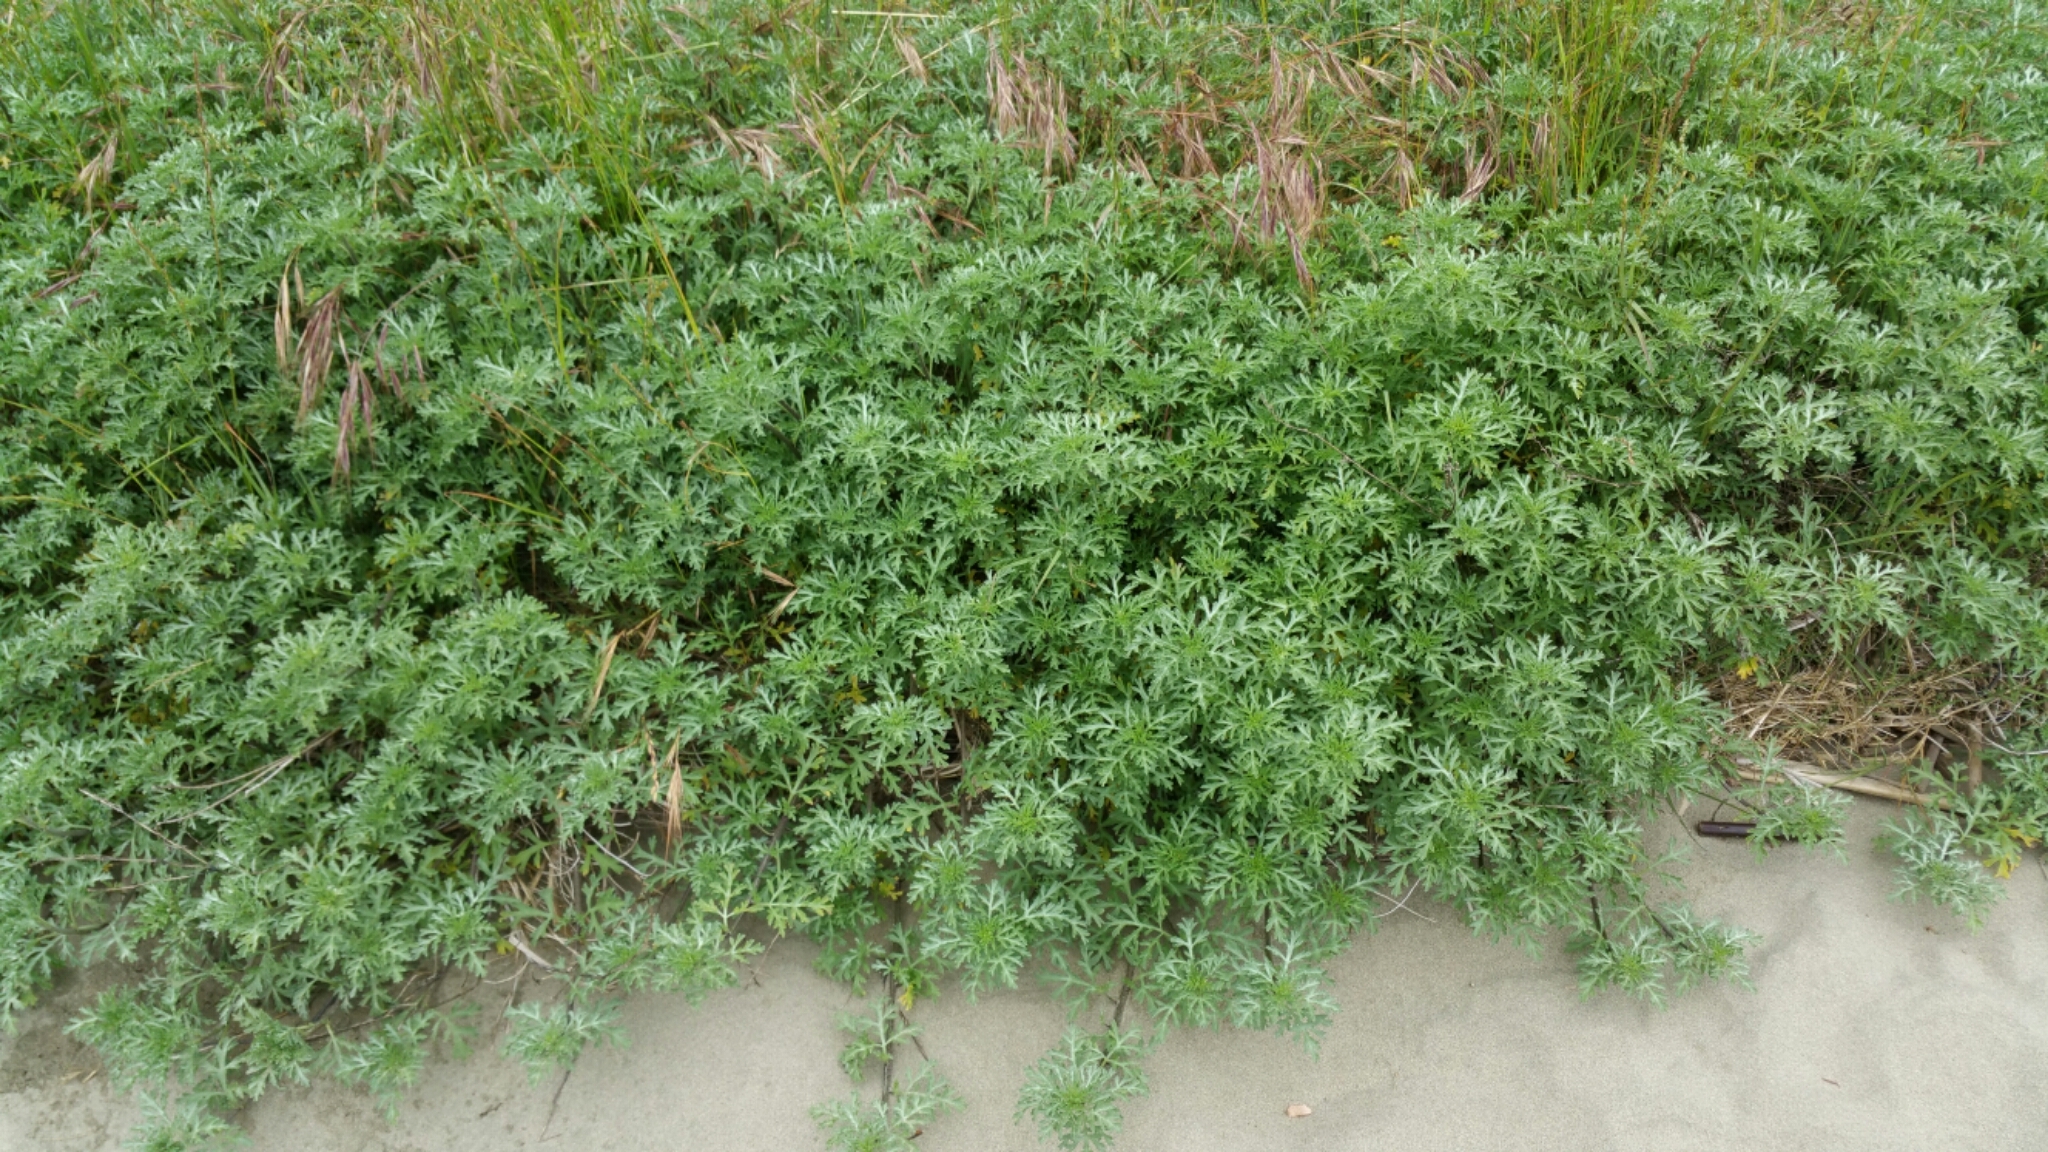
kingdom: Plantae
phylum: Tracheophyta
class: Magnoliopsida
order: Asterales
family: Asteraceae
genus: Ambrosia
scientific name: Ambrosia chamissonis
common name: Beachbur
